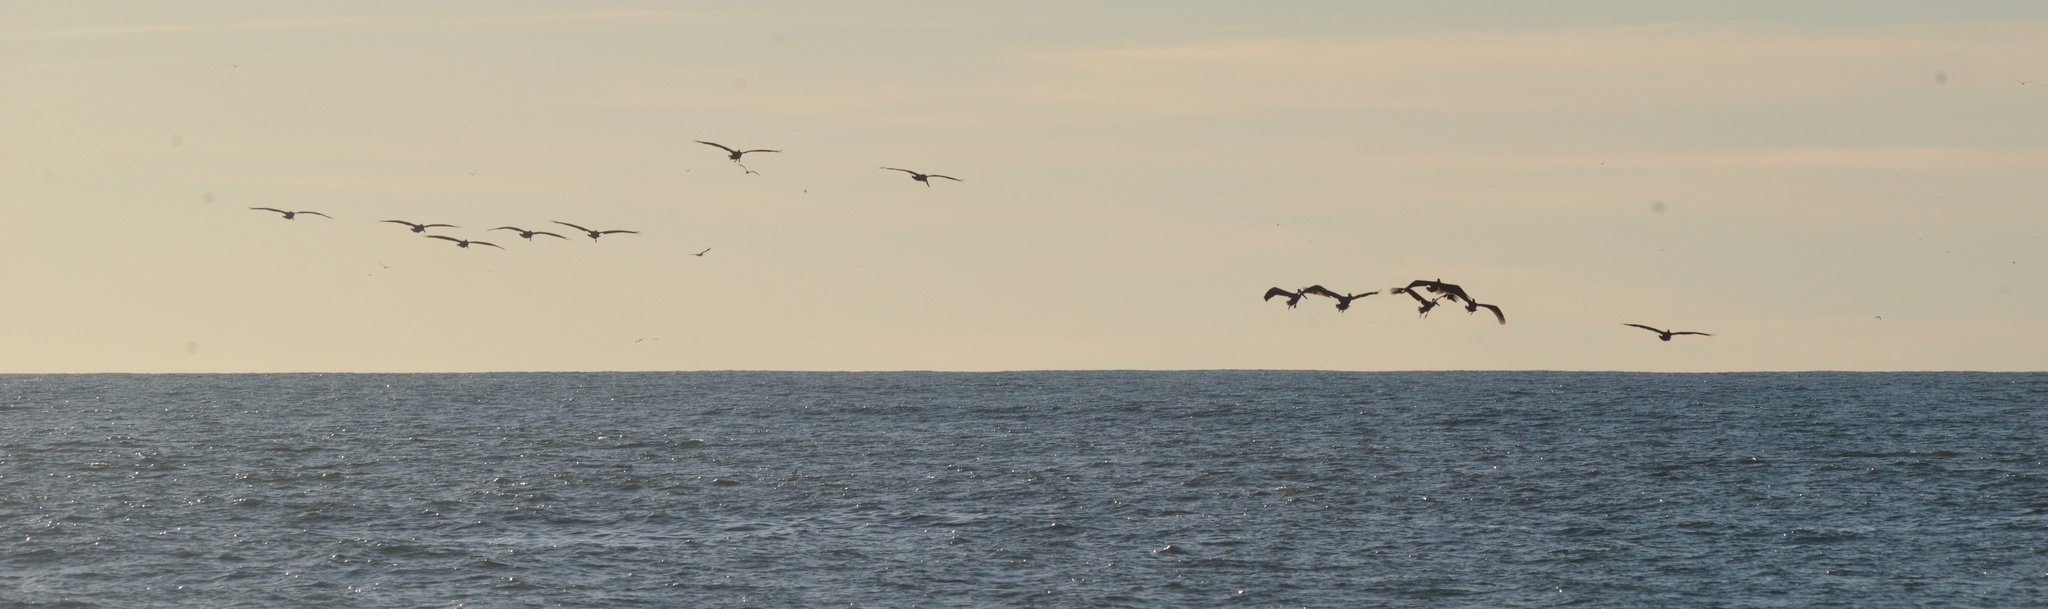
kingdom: Animalia
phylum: Chordata
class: Aves
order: Pelecaniformes
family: Pelecanidae
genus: Pelecanus
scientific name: Pelecanus occidentalis
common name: Brown pelican
